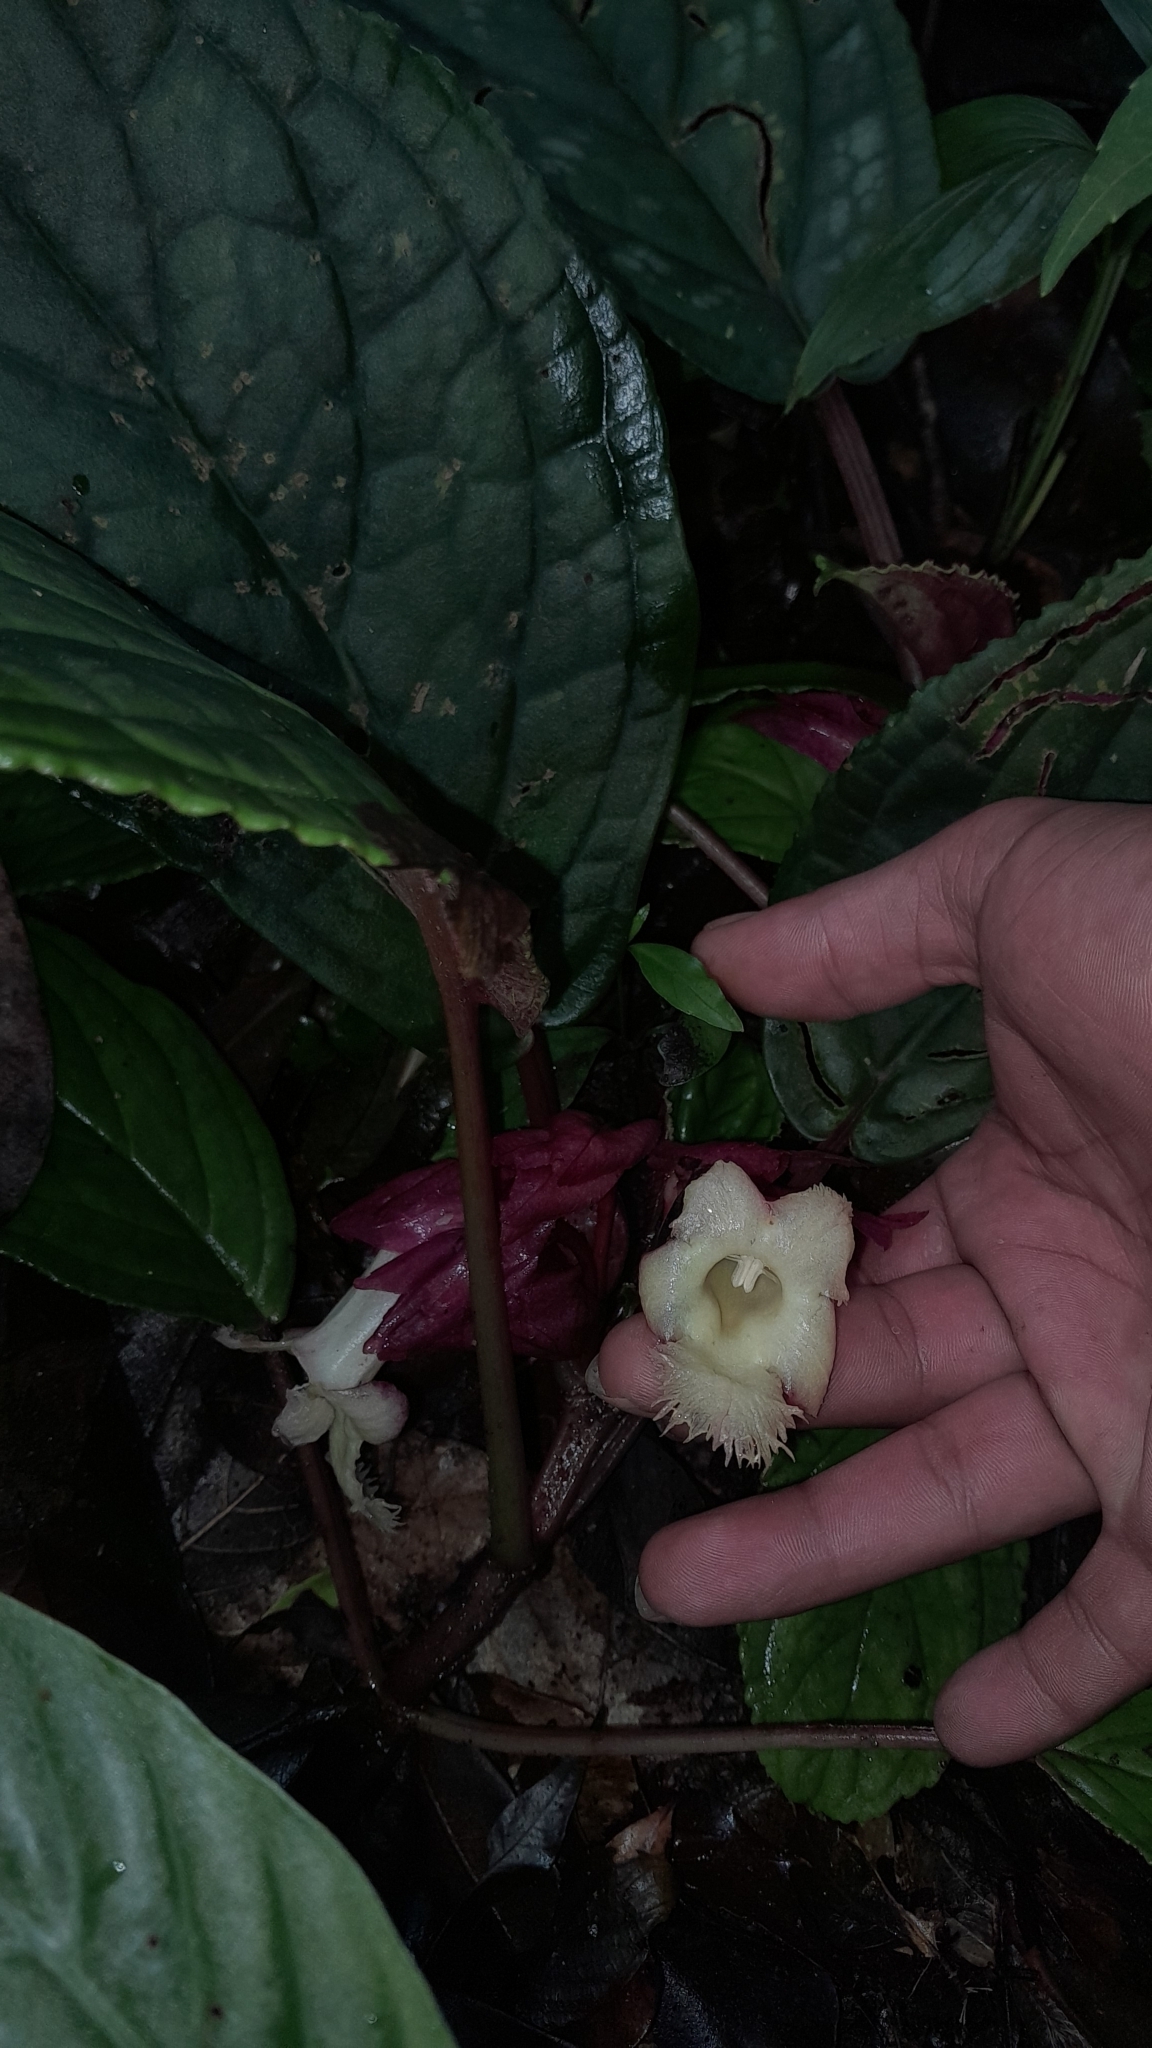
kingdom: Plantae
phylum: Tracheophyta
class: Magnoliopsida
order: Lamiales
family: Gesneriaceae
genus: Drymonia
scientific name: Drymonia turrialvae
